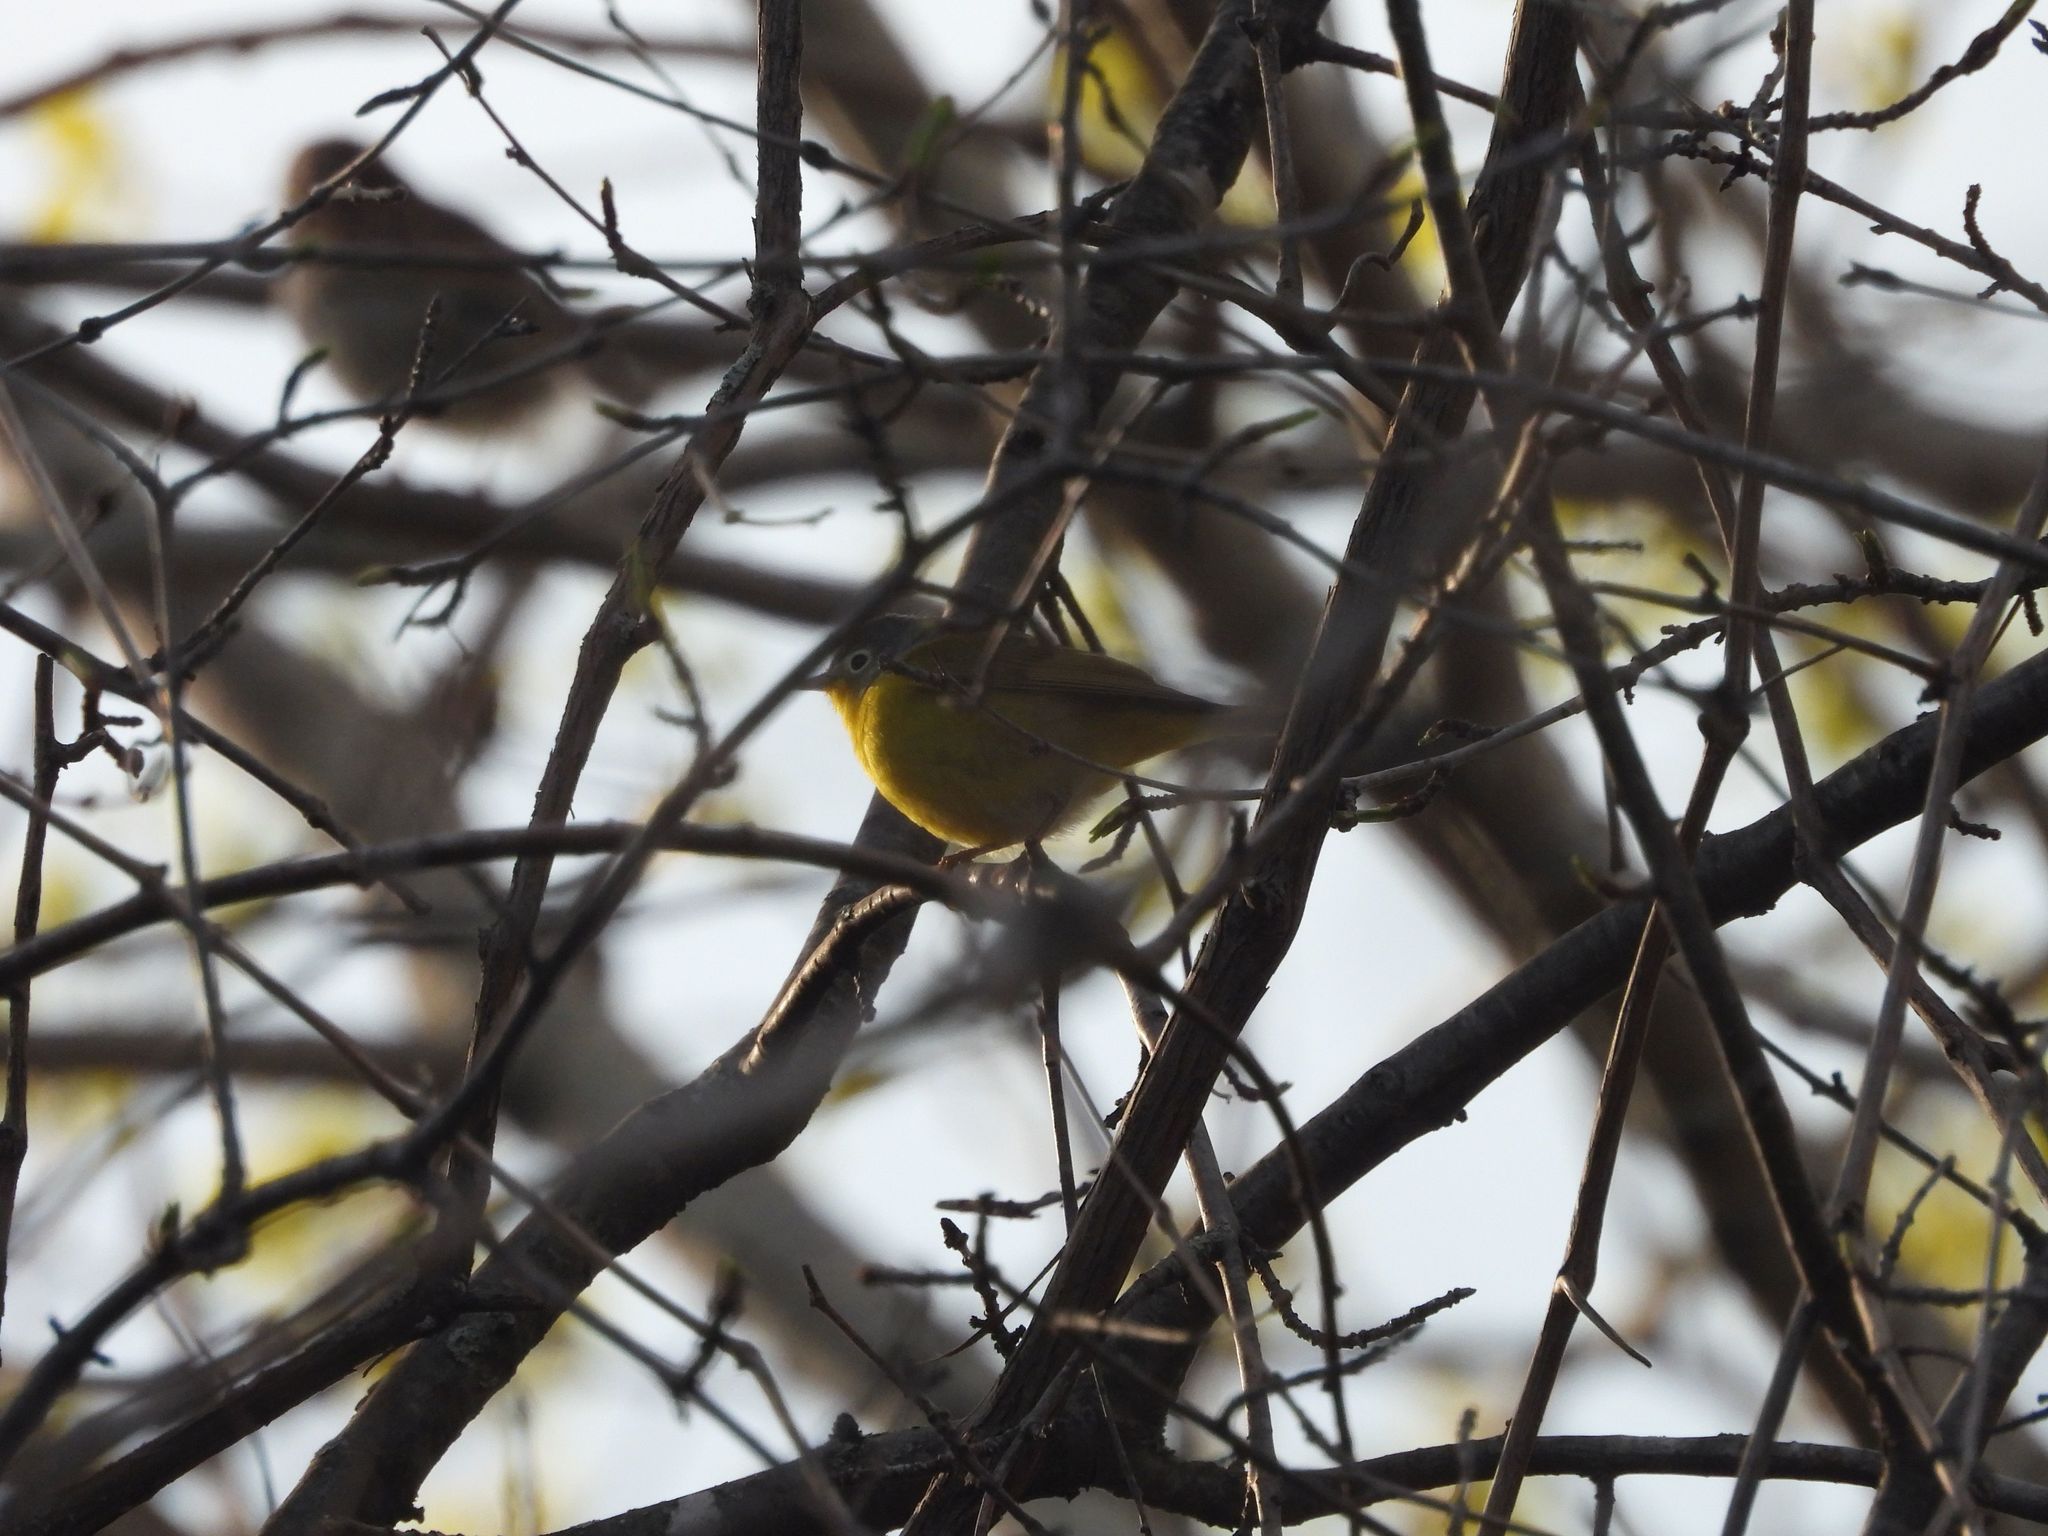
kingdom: Animalia
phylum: Chordata
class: Aves
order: Passeriformes
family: Parulidae
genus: Leiothlypis
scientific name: Leiothlypis ruficapilla
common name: Nashville warbler
